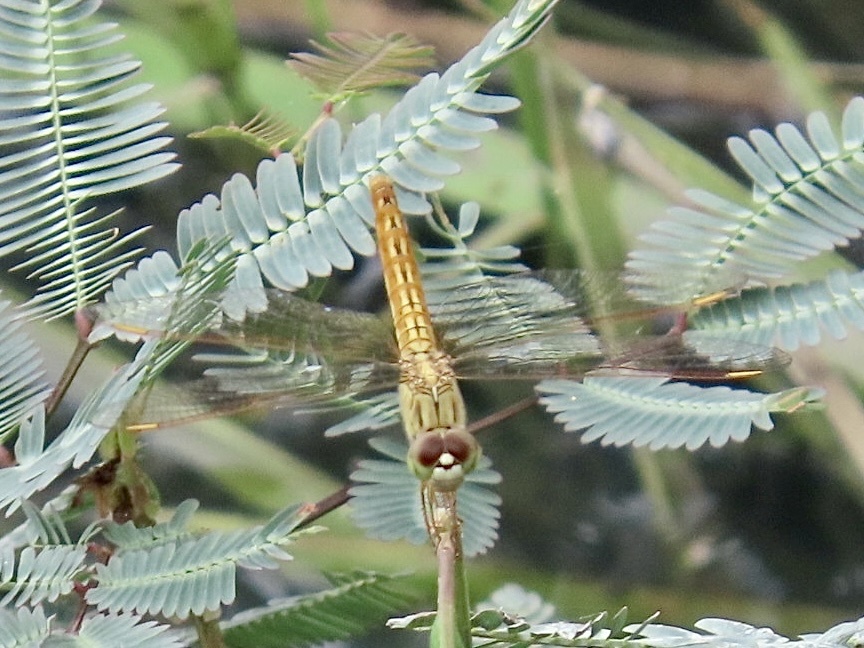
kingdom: Animalia
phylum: Arthropoda
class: Insecta
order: Odonata
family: Libellulidae
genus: Brachythemis
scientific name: Brachythemis contaminata
